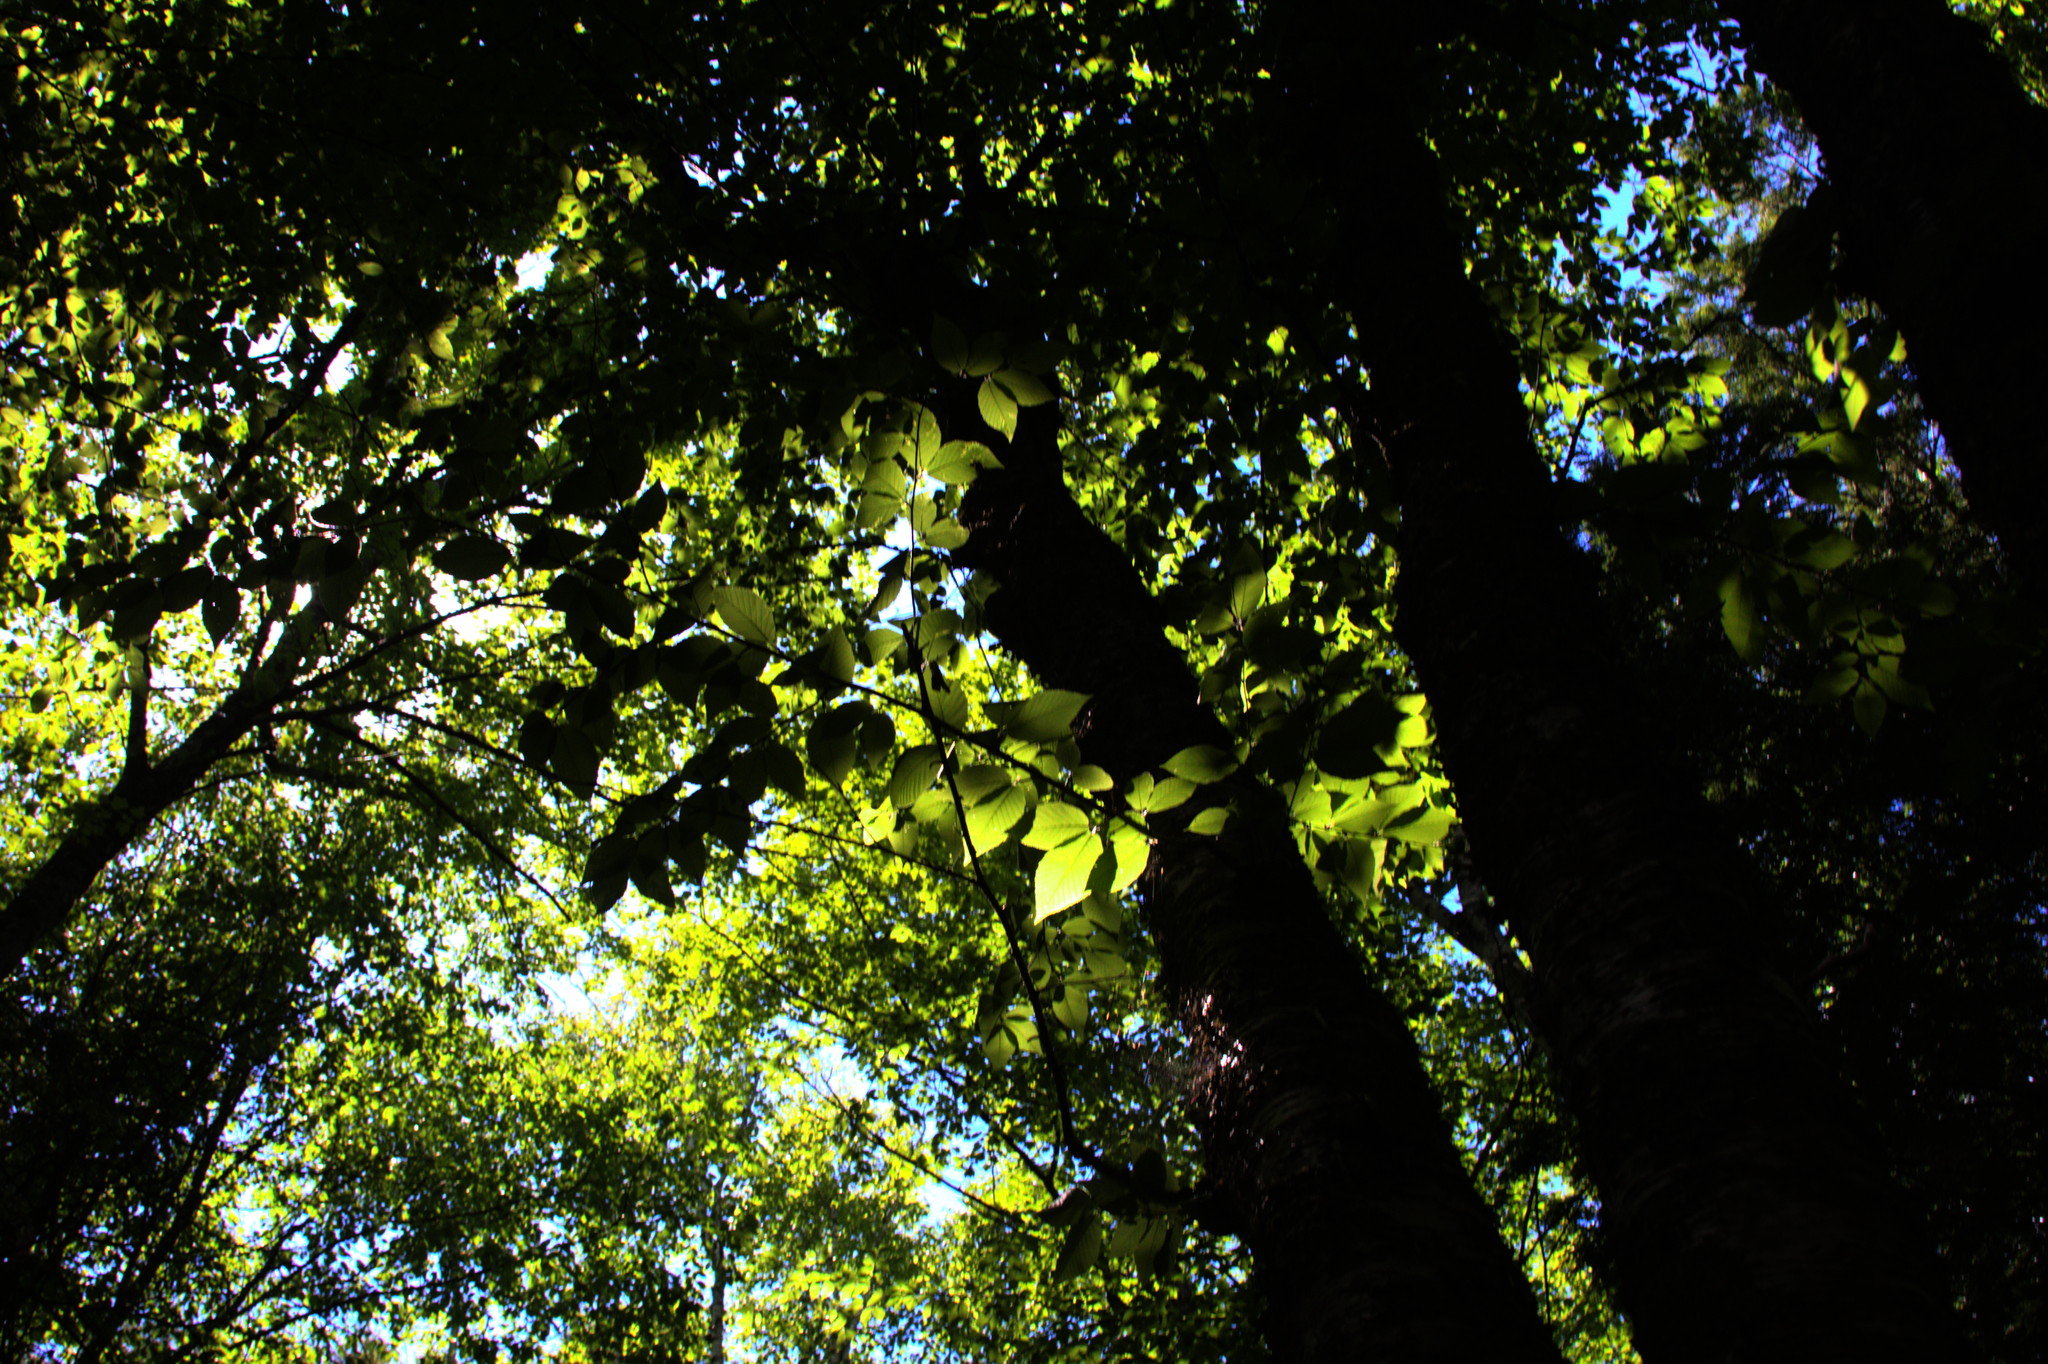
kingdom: Plantae
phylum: Tracheophyta
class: Magnoliopsida
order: Fagales
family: Betulaceae
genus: Betula
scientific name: Betula alleghaniensis
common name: Yellow birch
